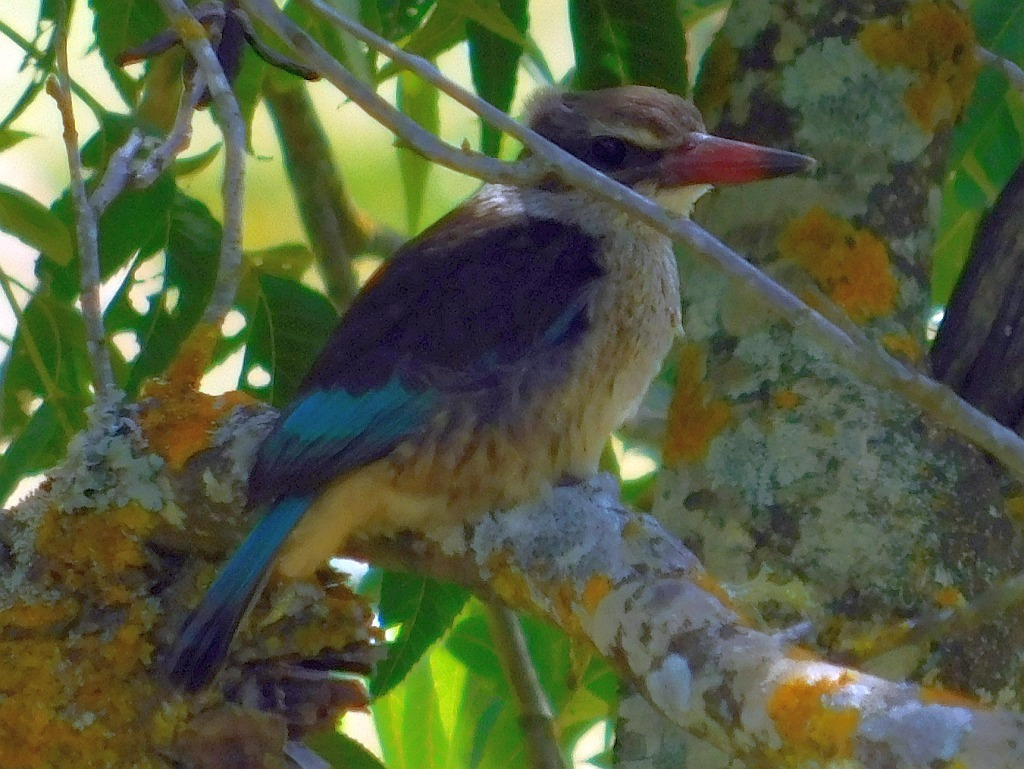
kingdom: Animalia
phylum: Chordata
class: Aves
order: Coraciiformes
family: Alcedinidae
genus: Halcyon
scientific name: Halcyon albiventris
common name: Brown-hooded kingfisher
